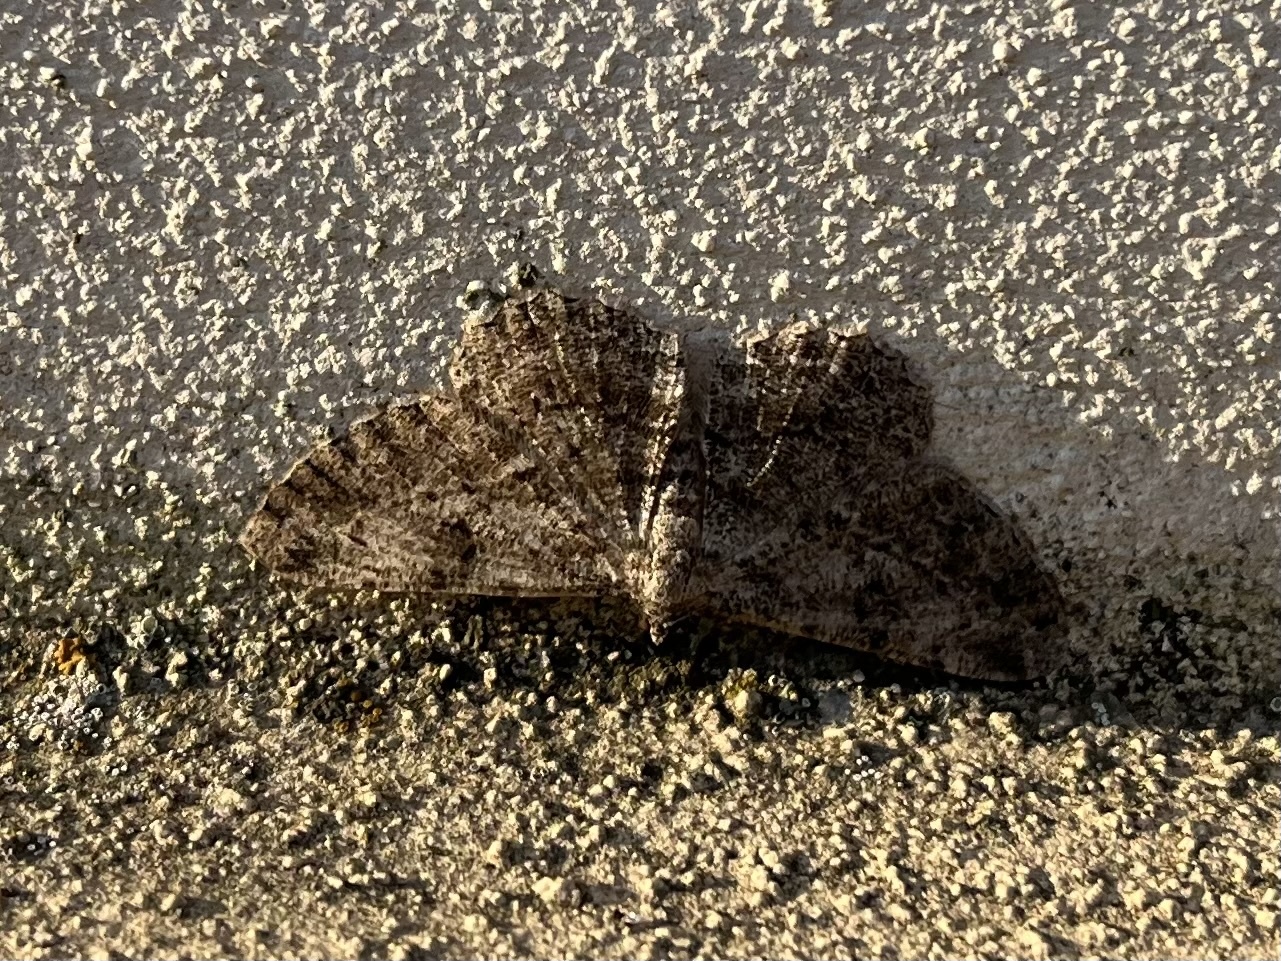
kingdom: Animalia
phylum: Arthropoda
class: Insecta
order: Lepidoptera
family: Geometridae
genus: Peribatodes
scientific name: Peribatodes rhomboidaria
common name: Willow beauty
